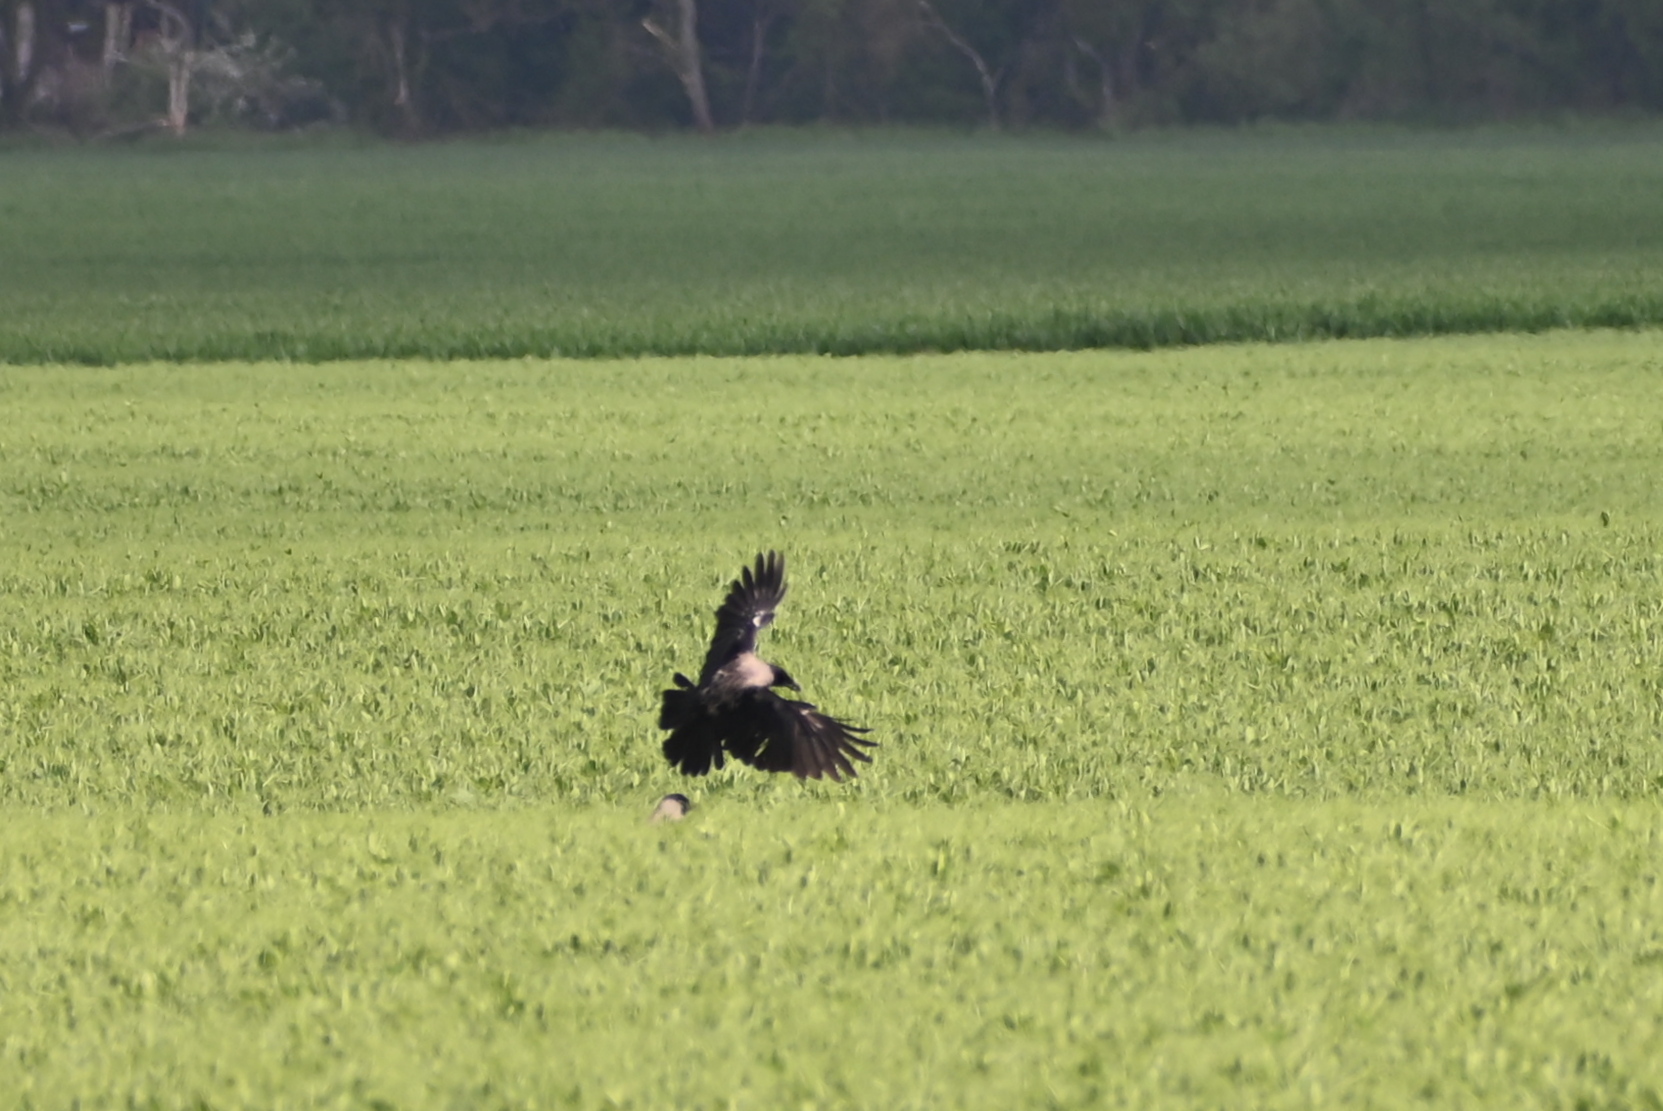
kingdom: Animalia
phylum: Chordata
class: Aves
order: Passeriformes
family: Corvidae
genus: Corvus
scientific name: Corvus cornix
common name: Hooded crow
